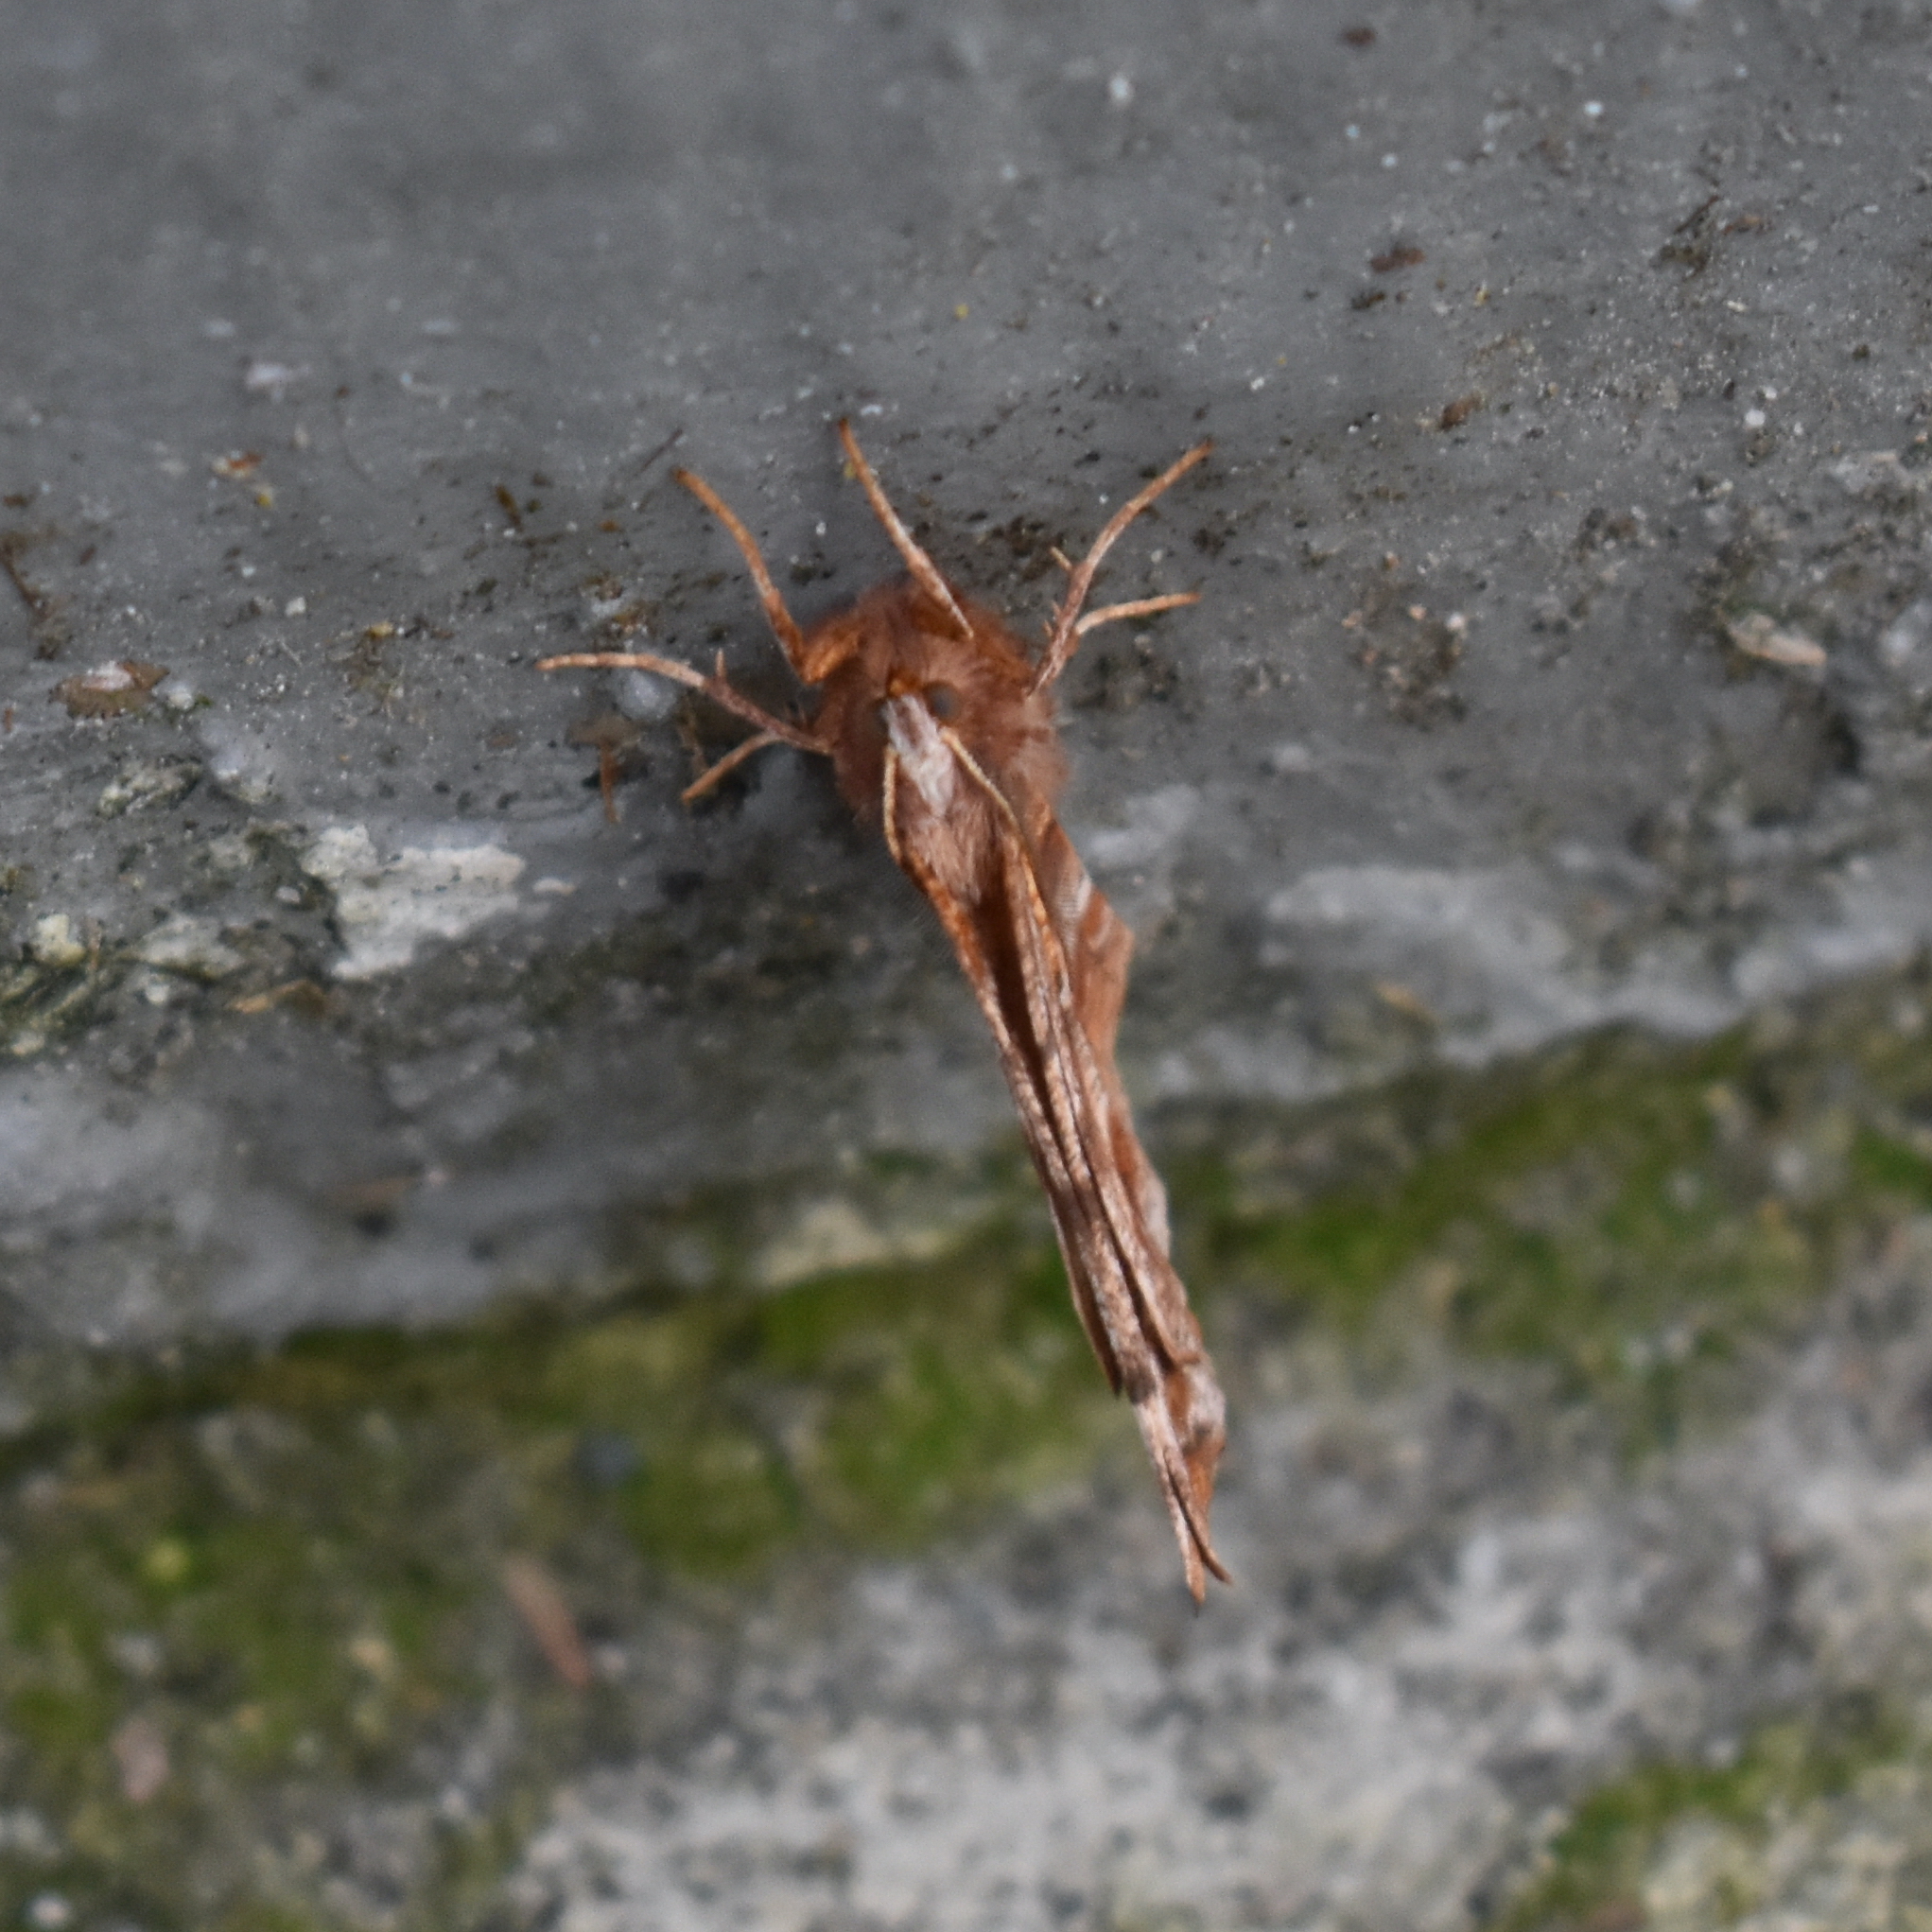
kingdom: Animalia
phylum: Arthropoda
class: Insecta
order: Lepidoptera
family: Geometridae
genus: Selenia
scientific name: Selenia alciphearia
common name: Brown-tipped thorn
